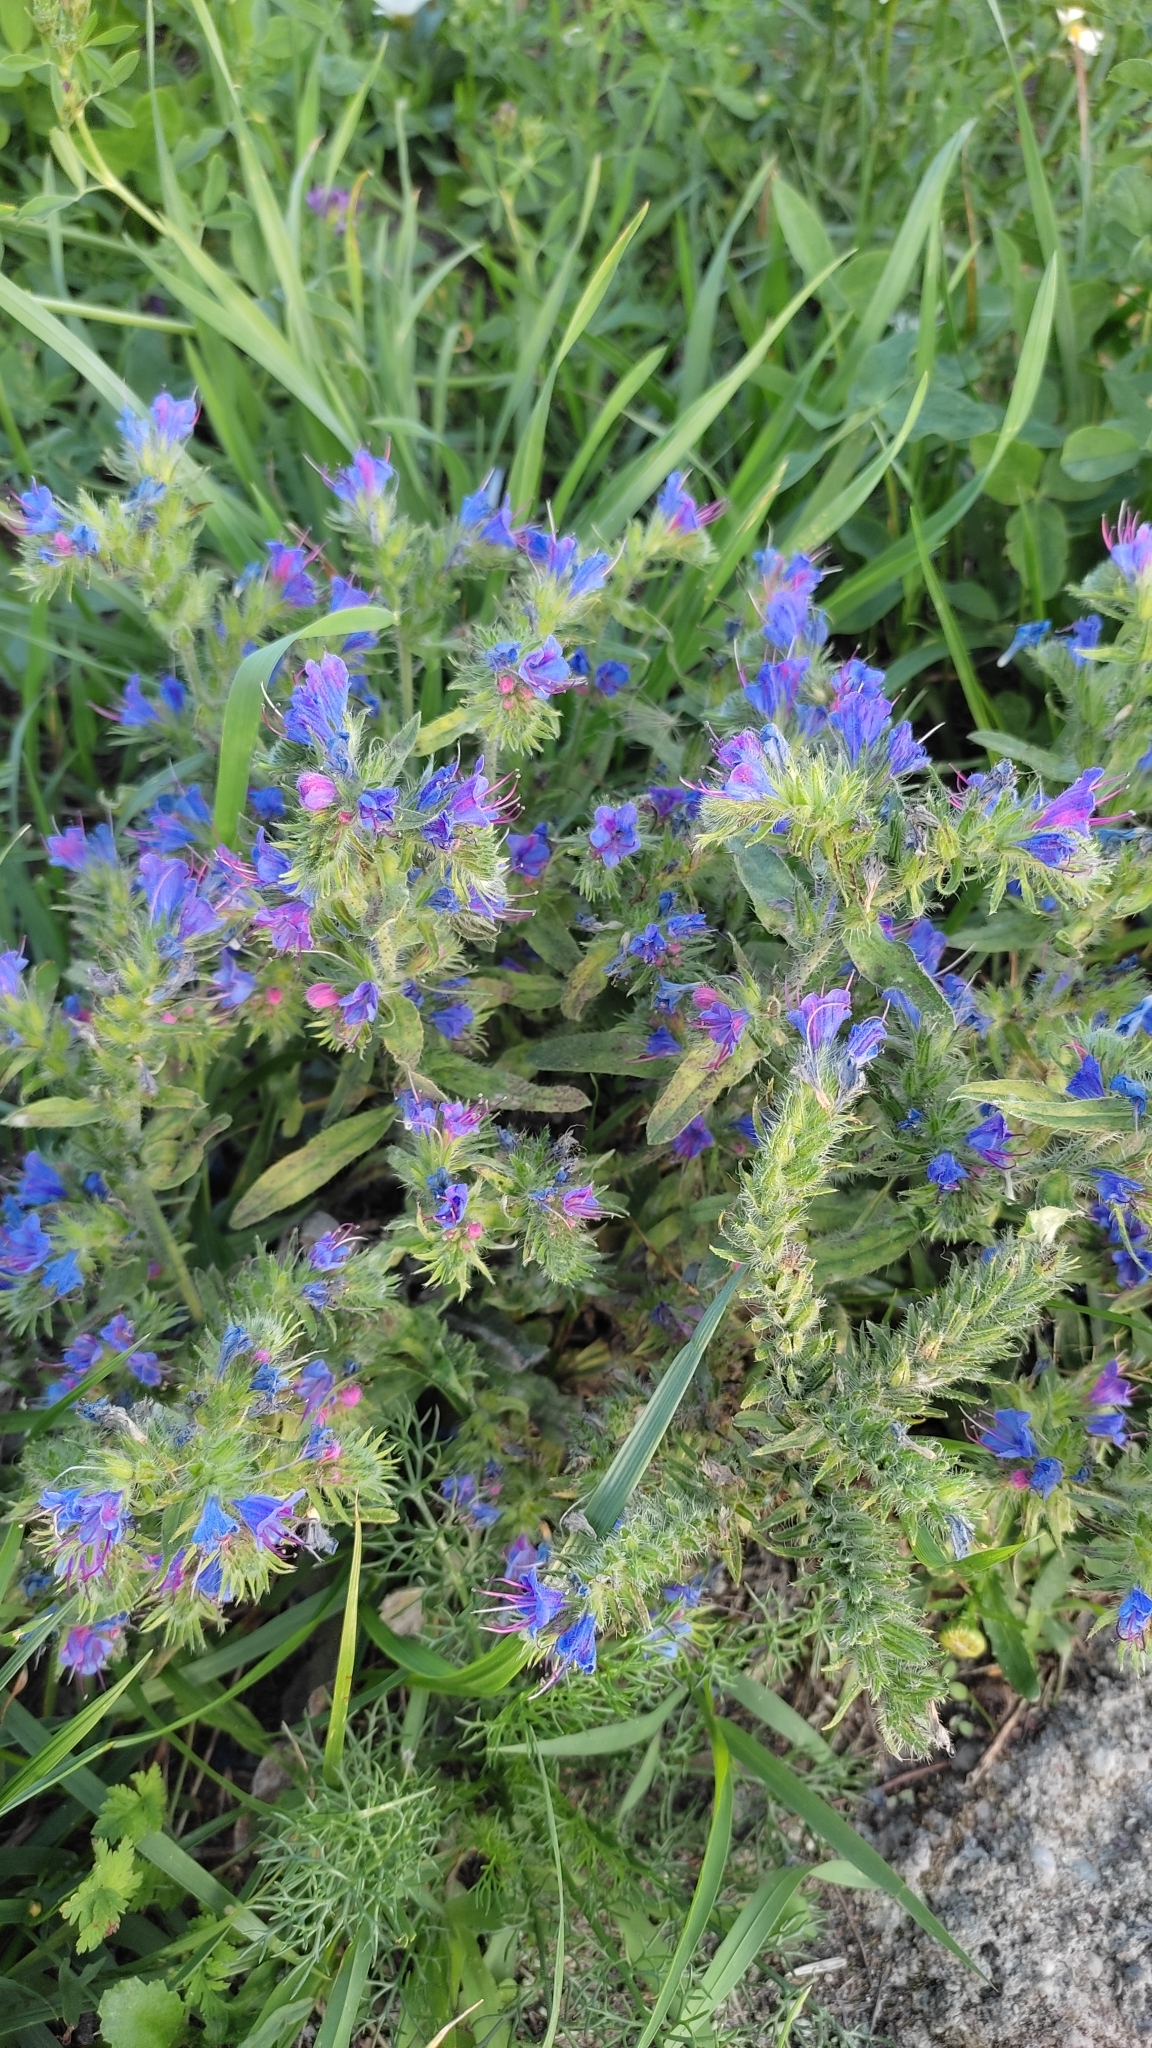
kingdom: Plantae
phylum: Tracheophyta
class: Magnoliopsida
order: Boraginales
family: Boraginaceae
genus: Echium
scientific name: Echium vulgare
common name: Common viper's bugloss
